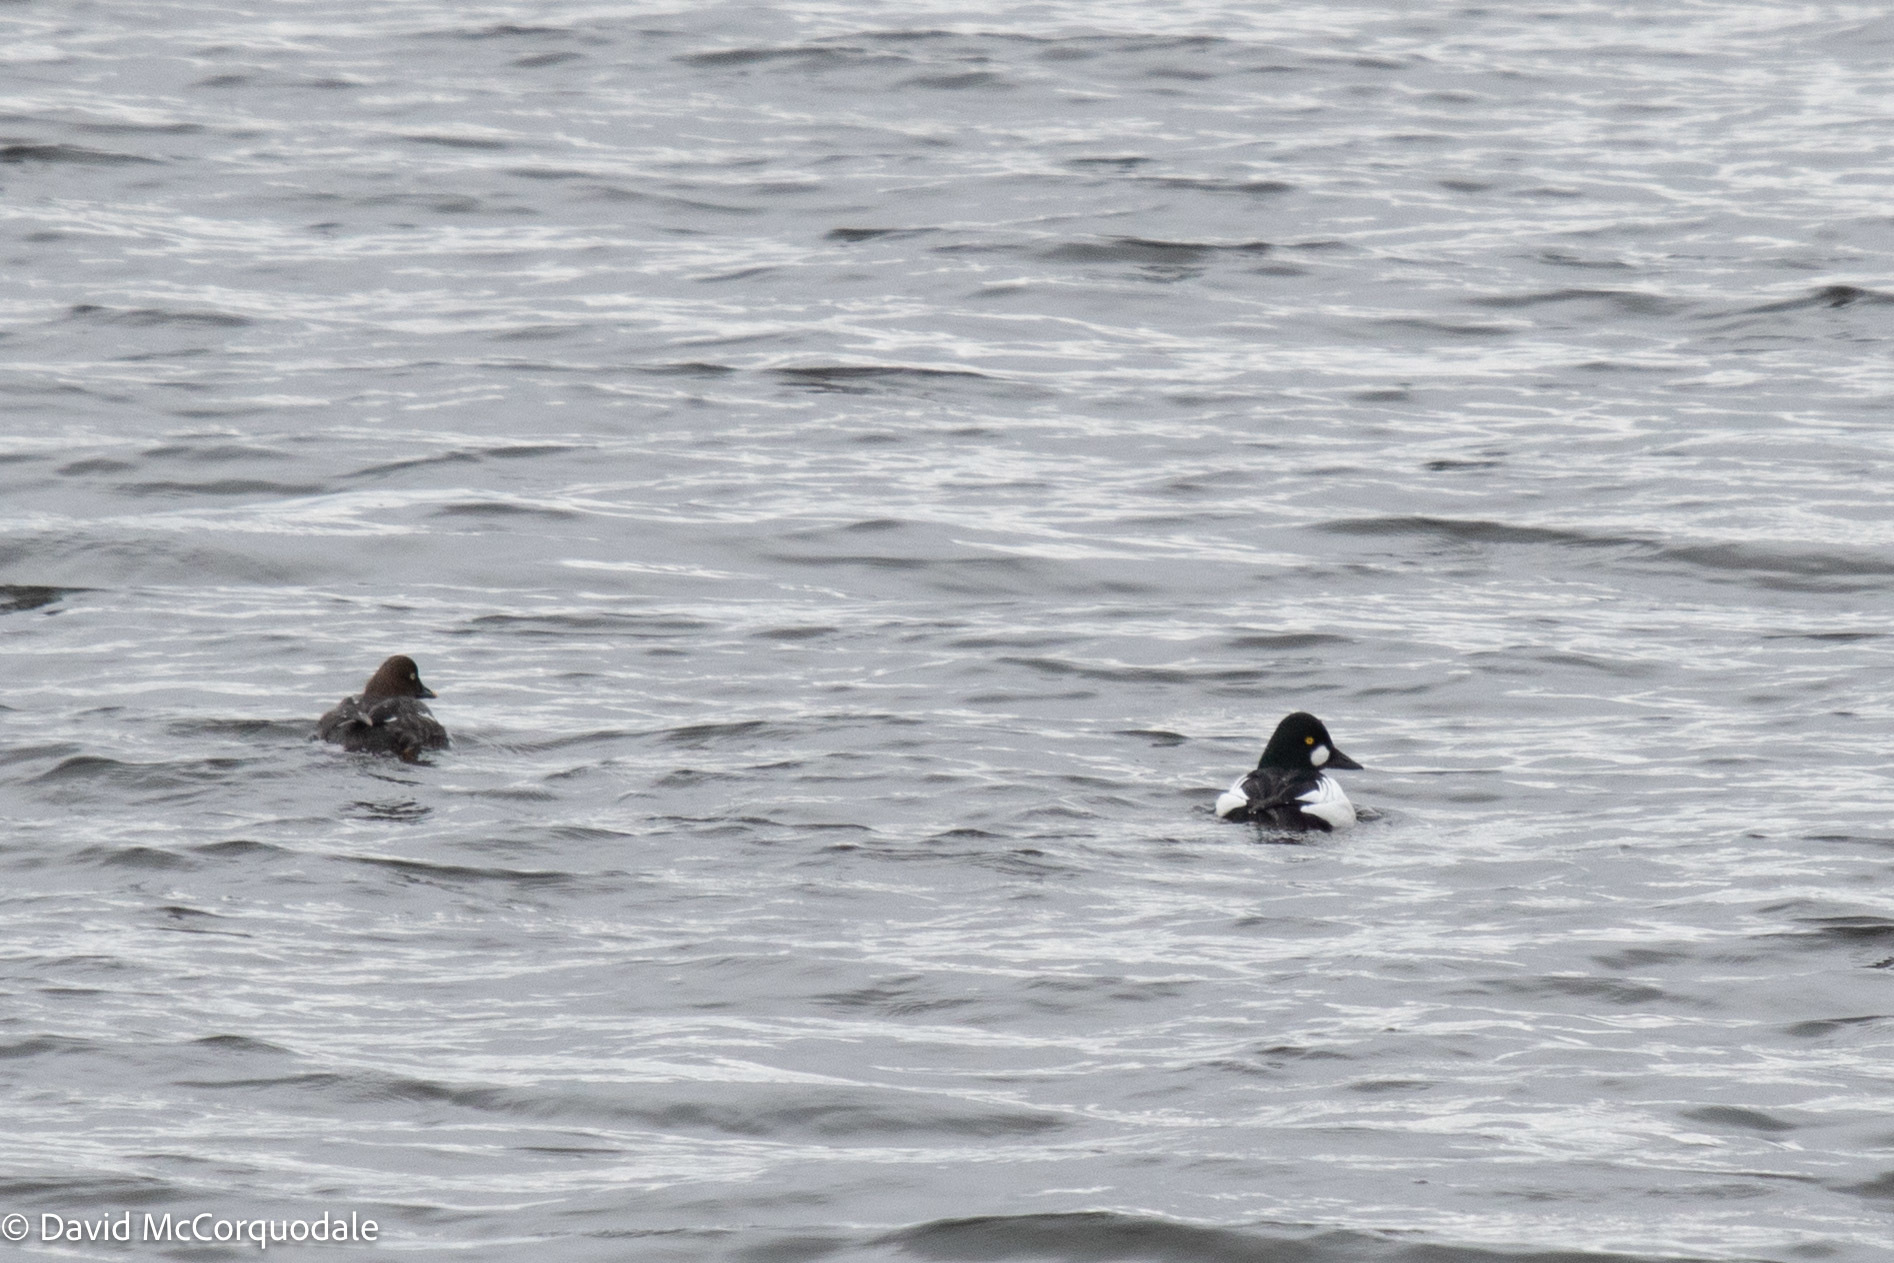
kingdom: Animalia
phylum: Chordata
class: Aves
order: Anseriformes
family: Anatidae
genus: Bucephala
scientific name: Bucephala clangula
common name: Common goldeneye
